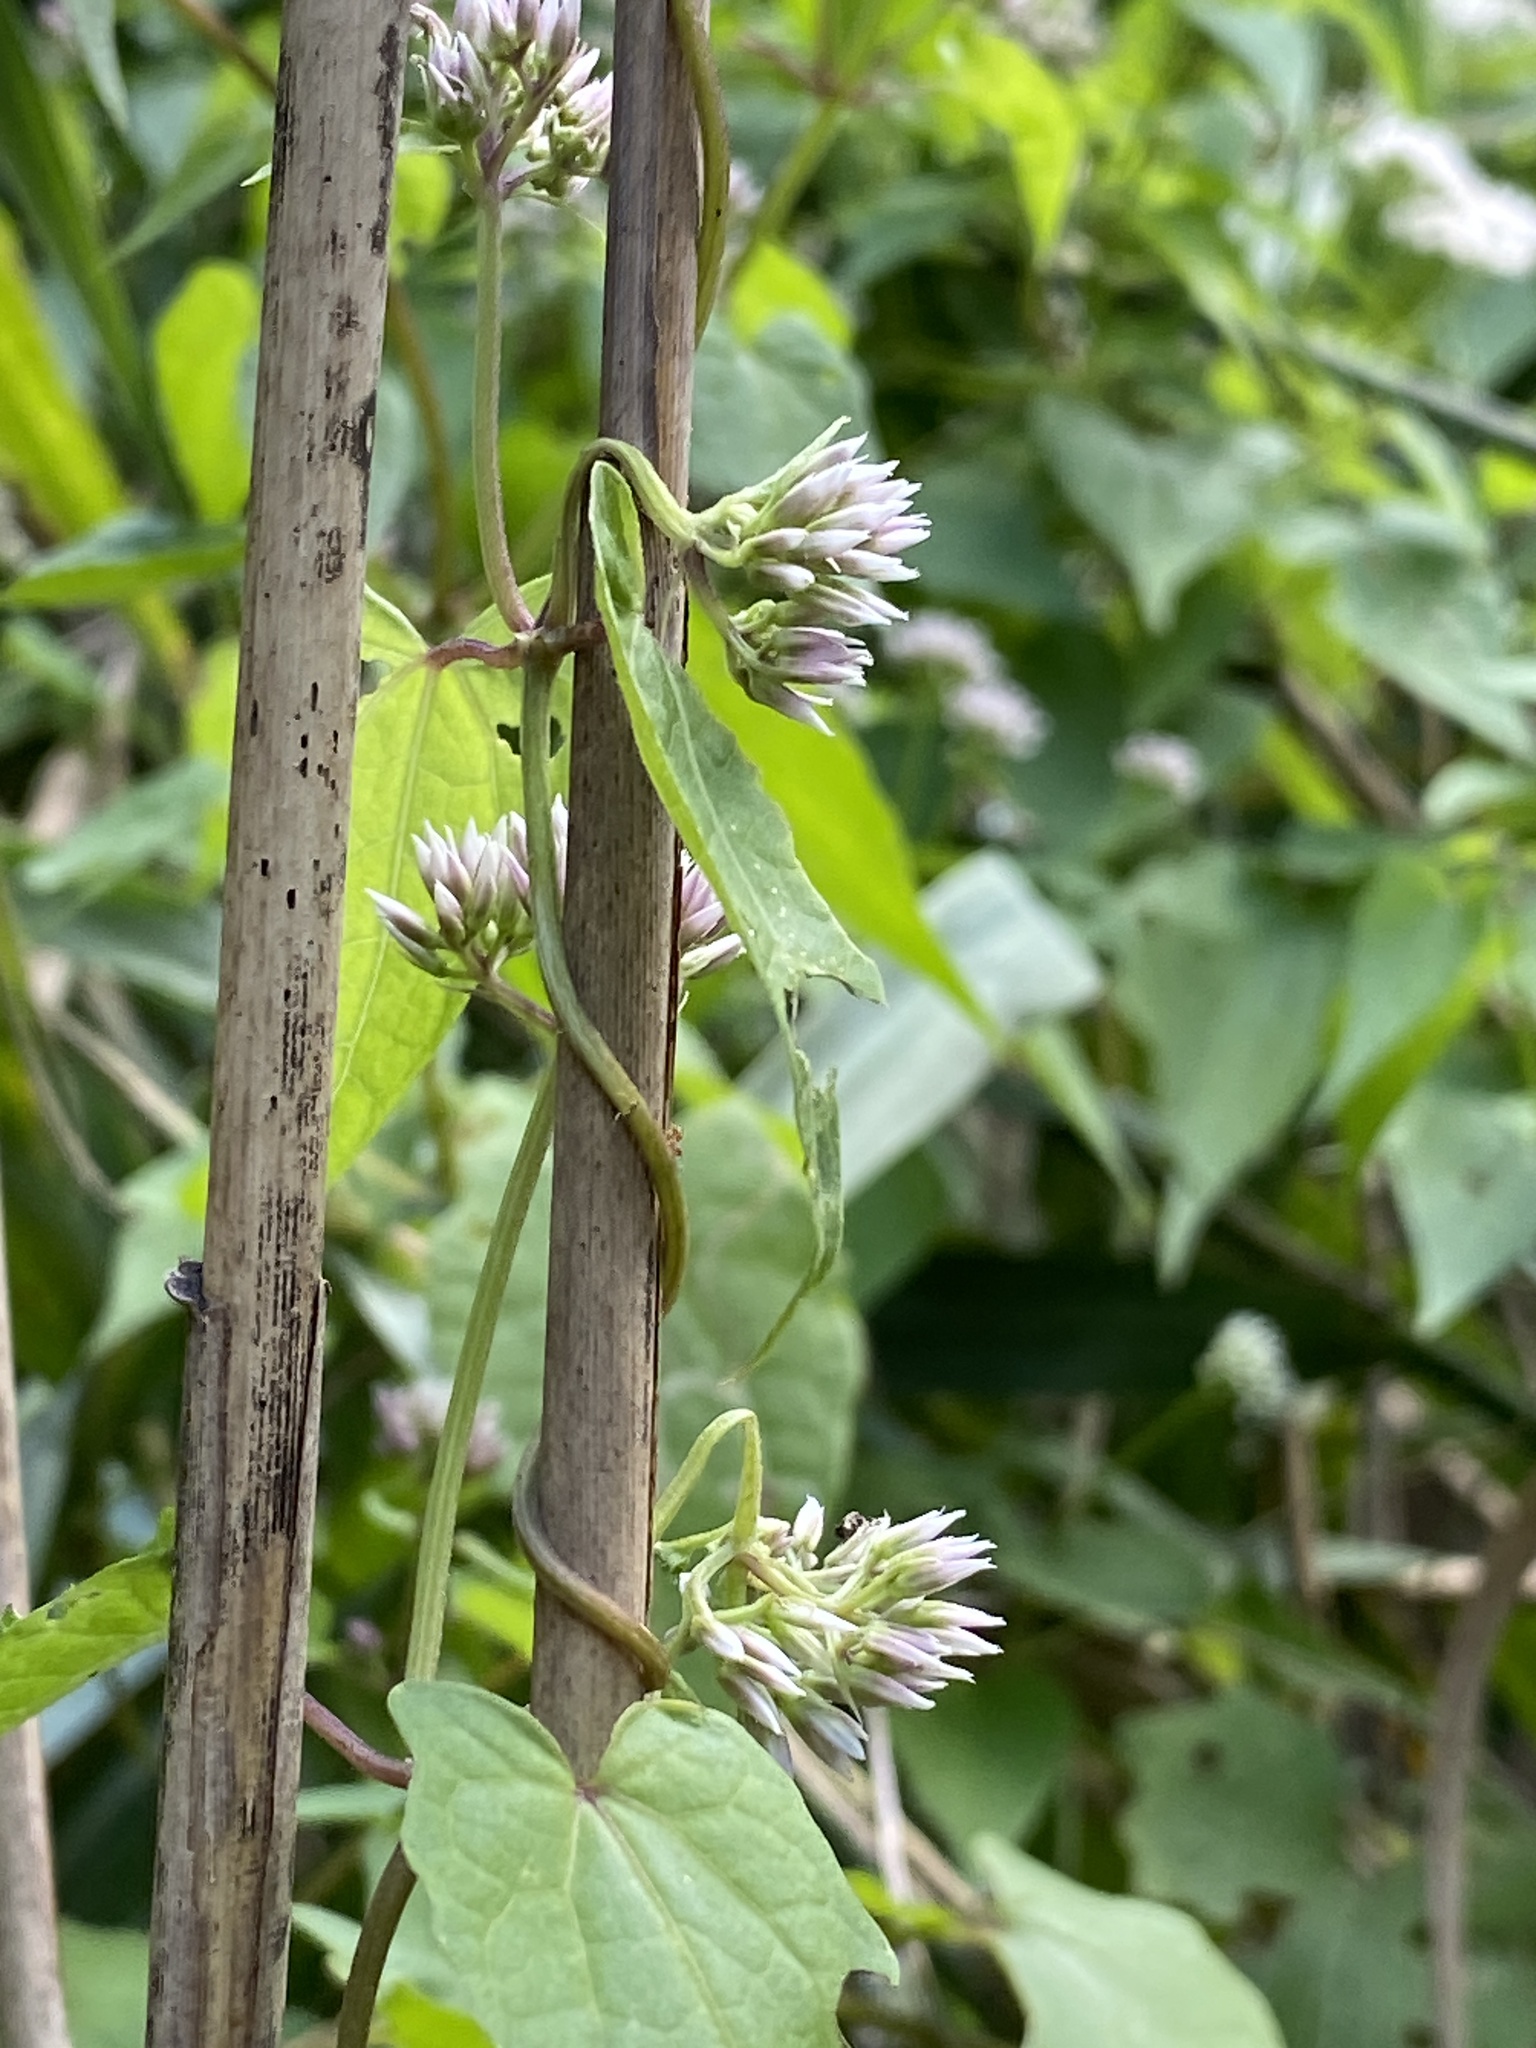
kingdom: Plantae
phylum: Tracheophyta
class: Magnoliopsida
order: Asterales
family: Asteraceae
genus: Mikania
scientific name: Mikania scandens
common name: Climbing hempvine
